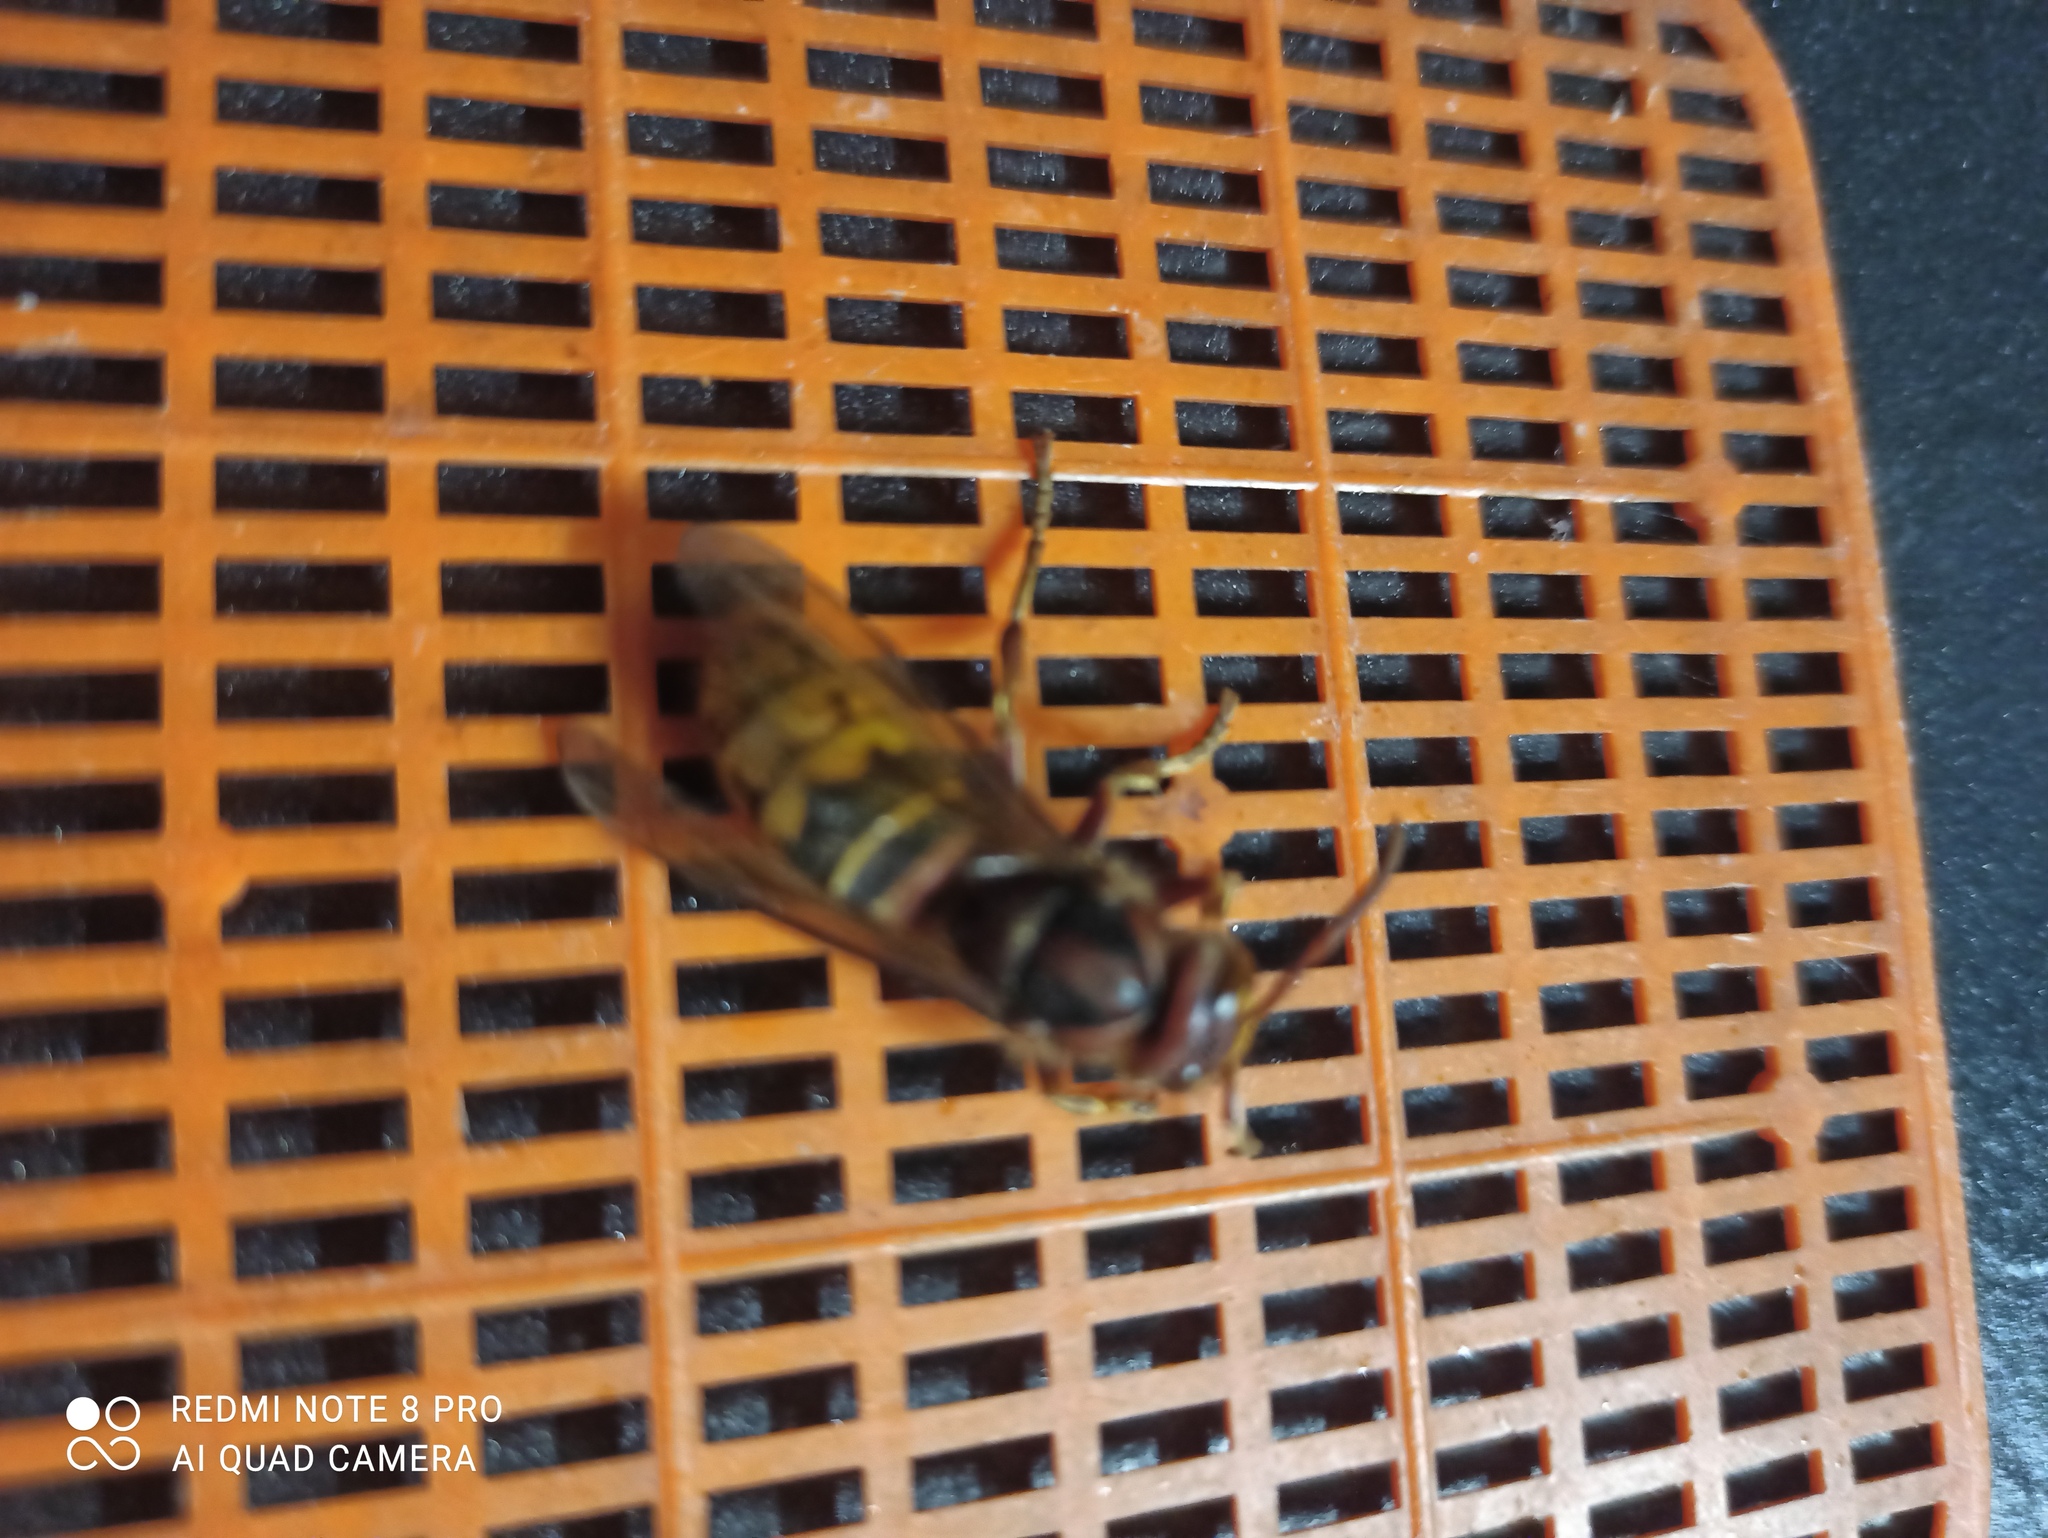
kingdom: Animalia
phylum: Arthropoda
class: Insecta
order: Hymenoptera
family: Vespidae
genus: Vespa
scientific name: Vespa crabro
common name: Hornet
